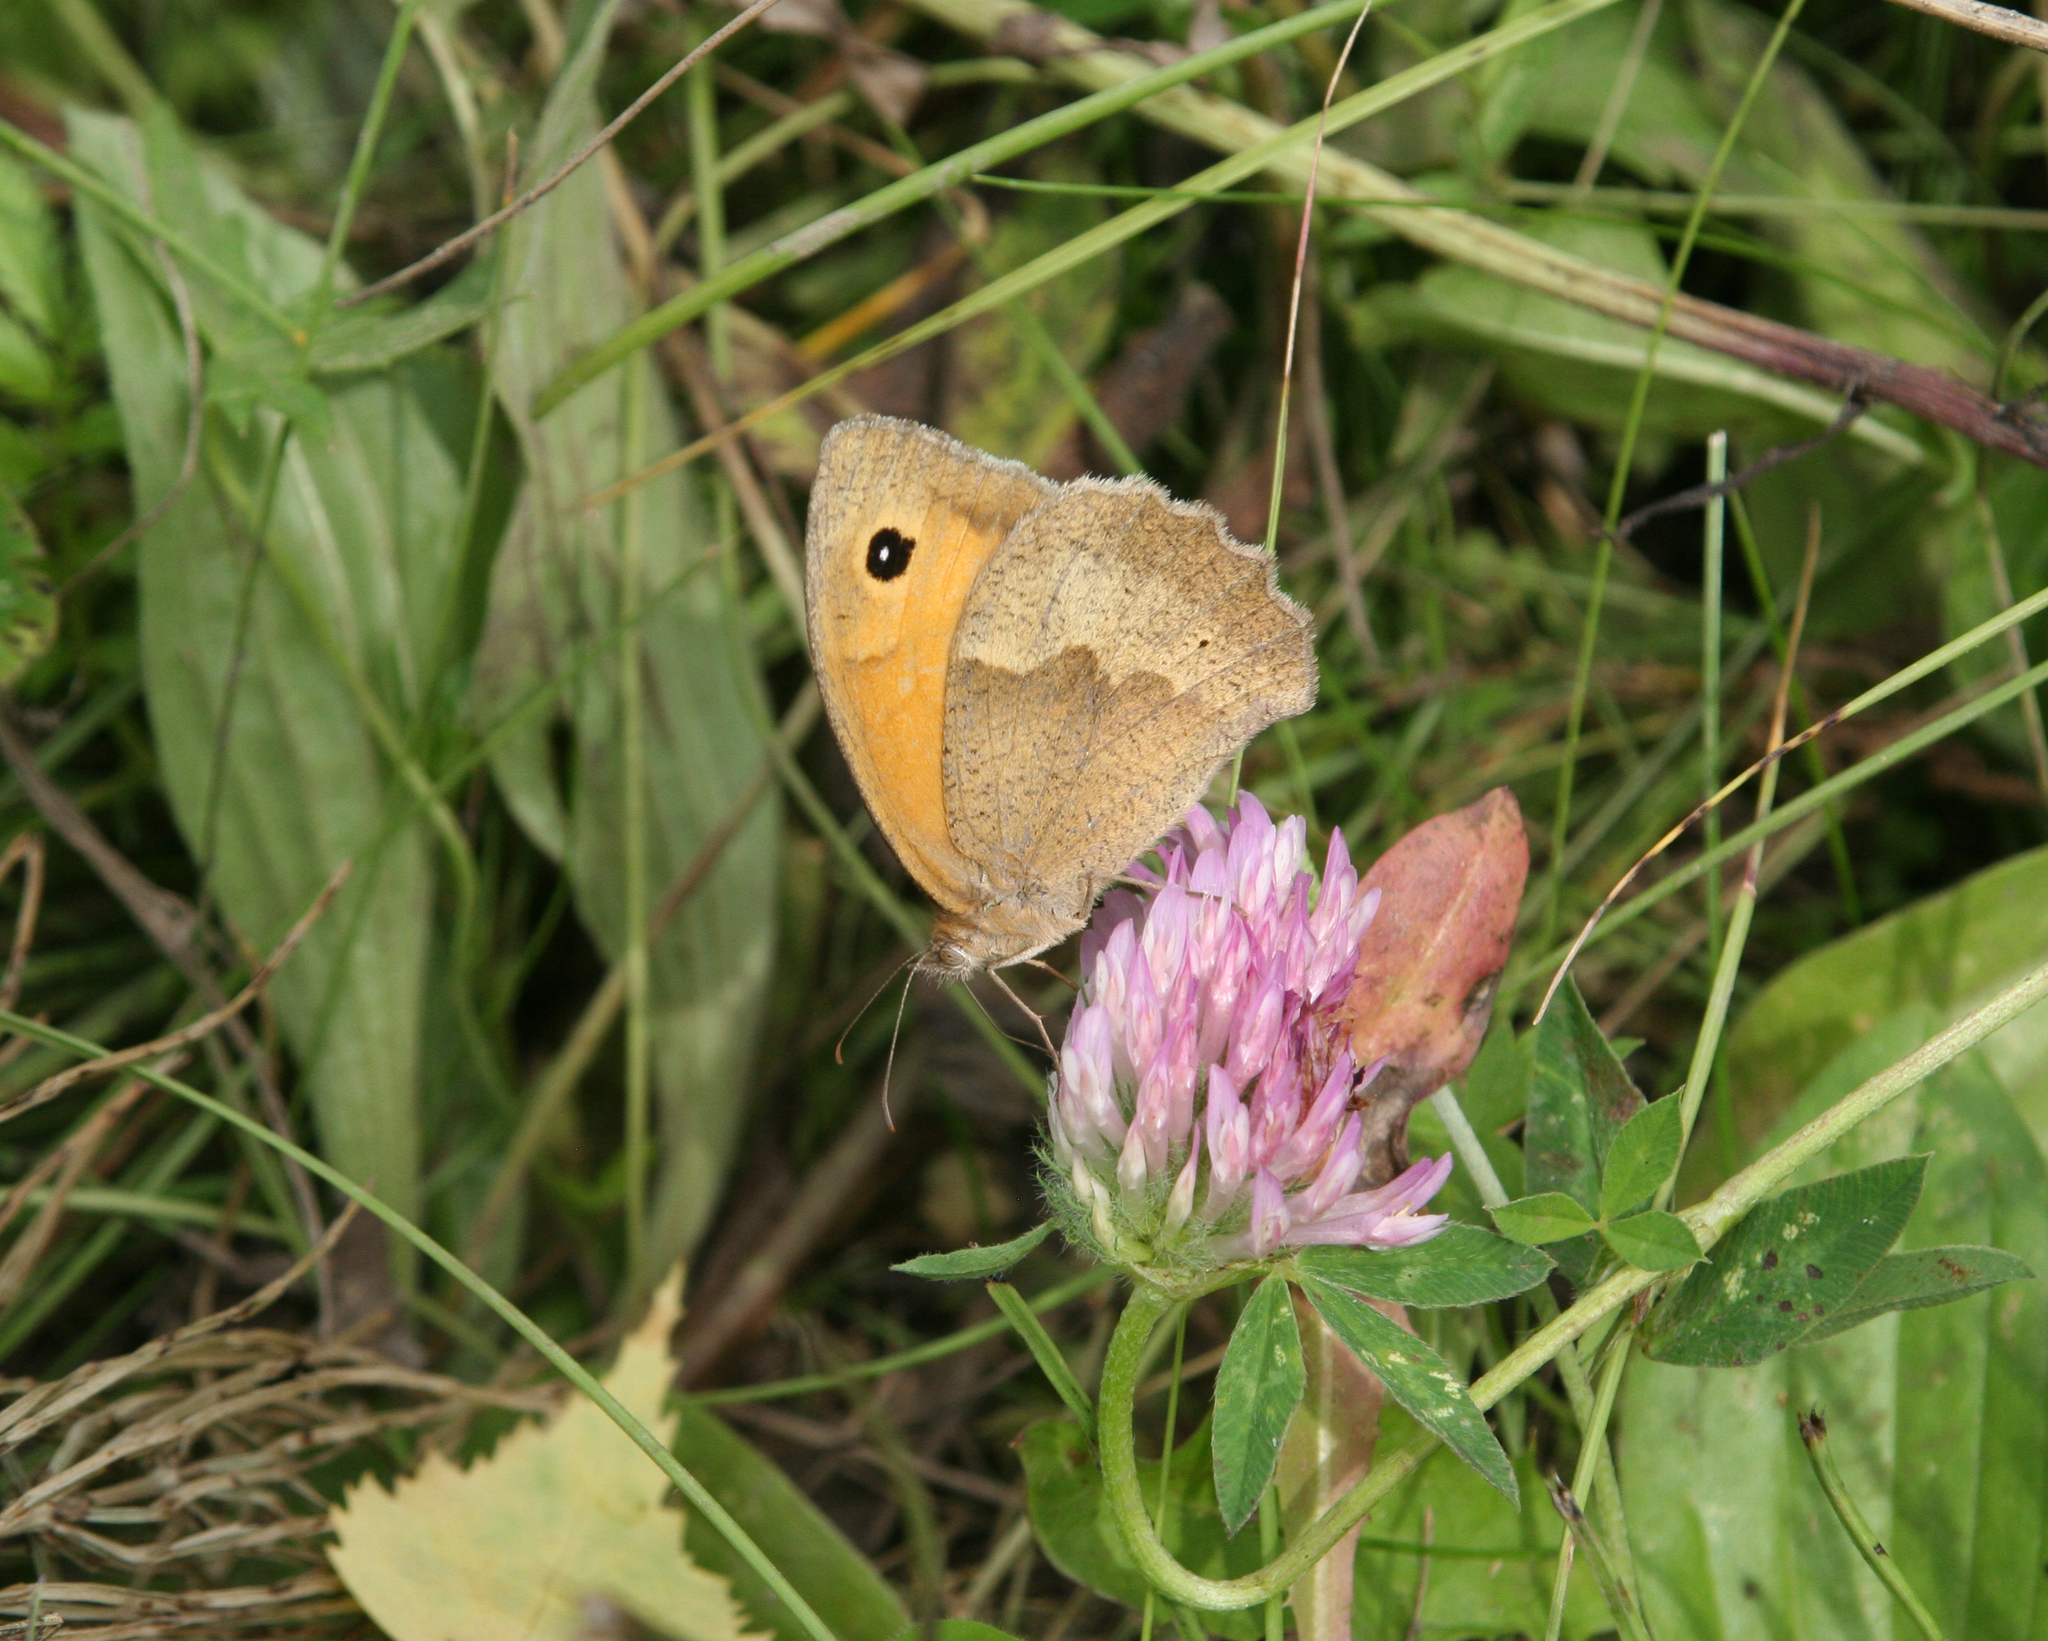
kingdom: Plantae
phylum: Tracheophyta
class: Magnoliopsida
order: Fabales
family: Fabaceae
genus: Trifolium
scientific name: Trifolium pratense
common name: Red clover
